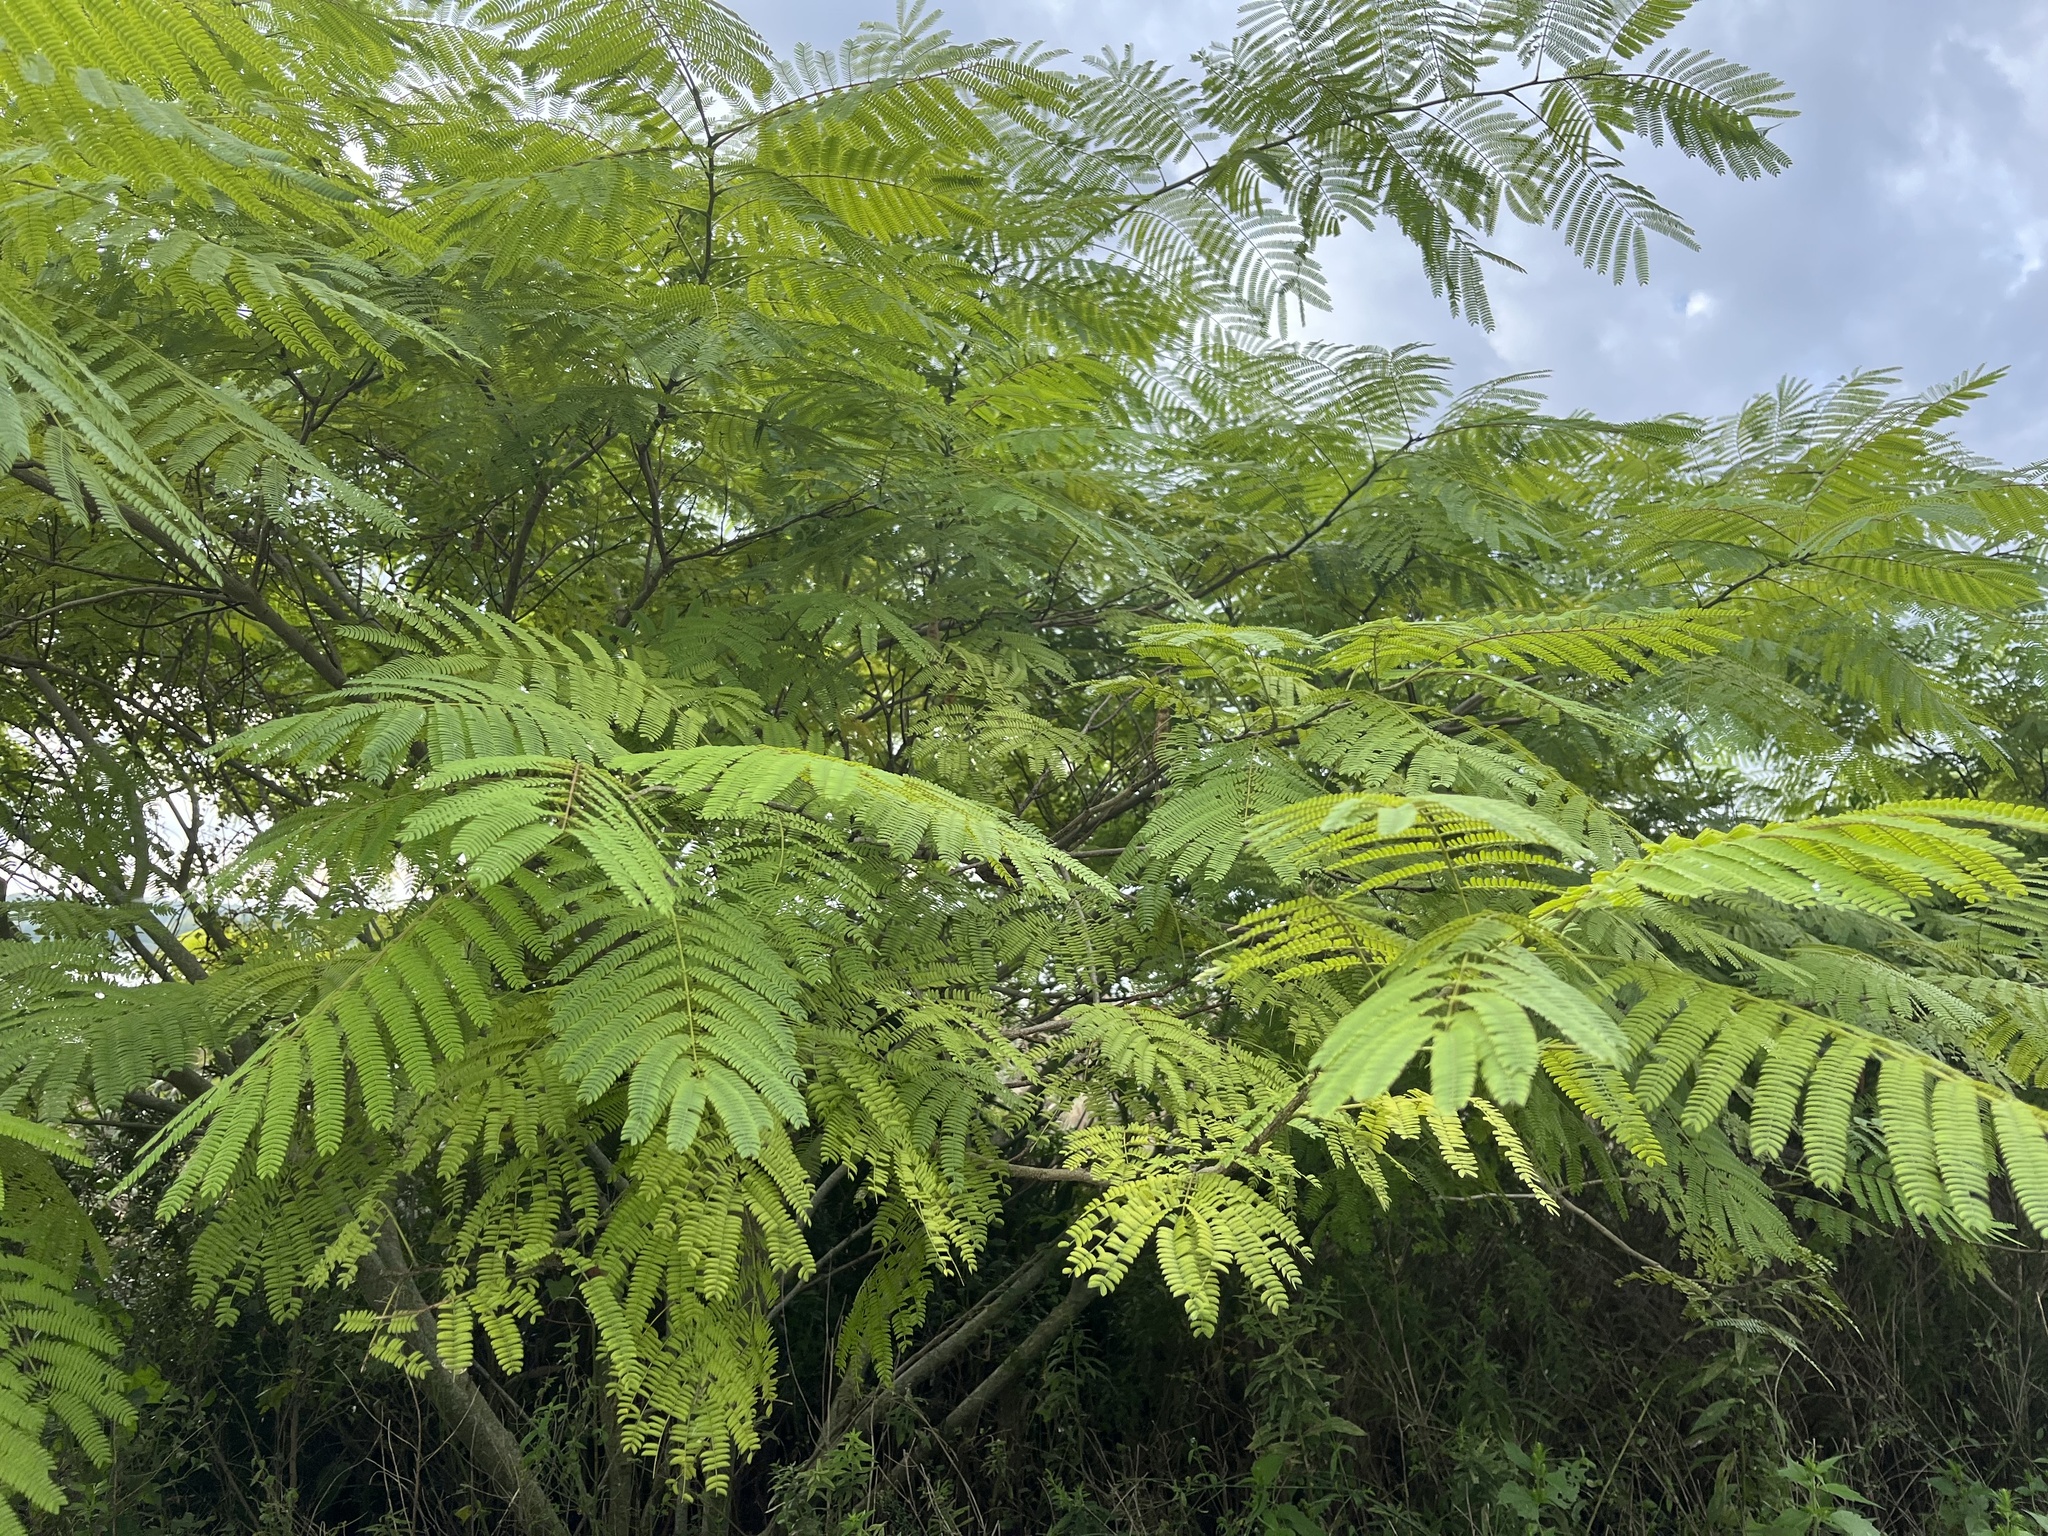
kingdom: Plantae
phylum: Tracheophyta
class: Magnoliopsida
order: Fabales
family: Fabaceae
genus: Albizia
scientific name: Albizia julibrissin
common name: Silktree
